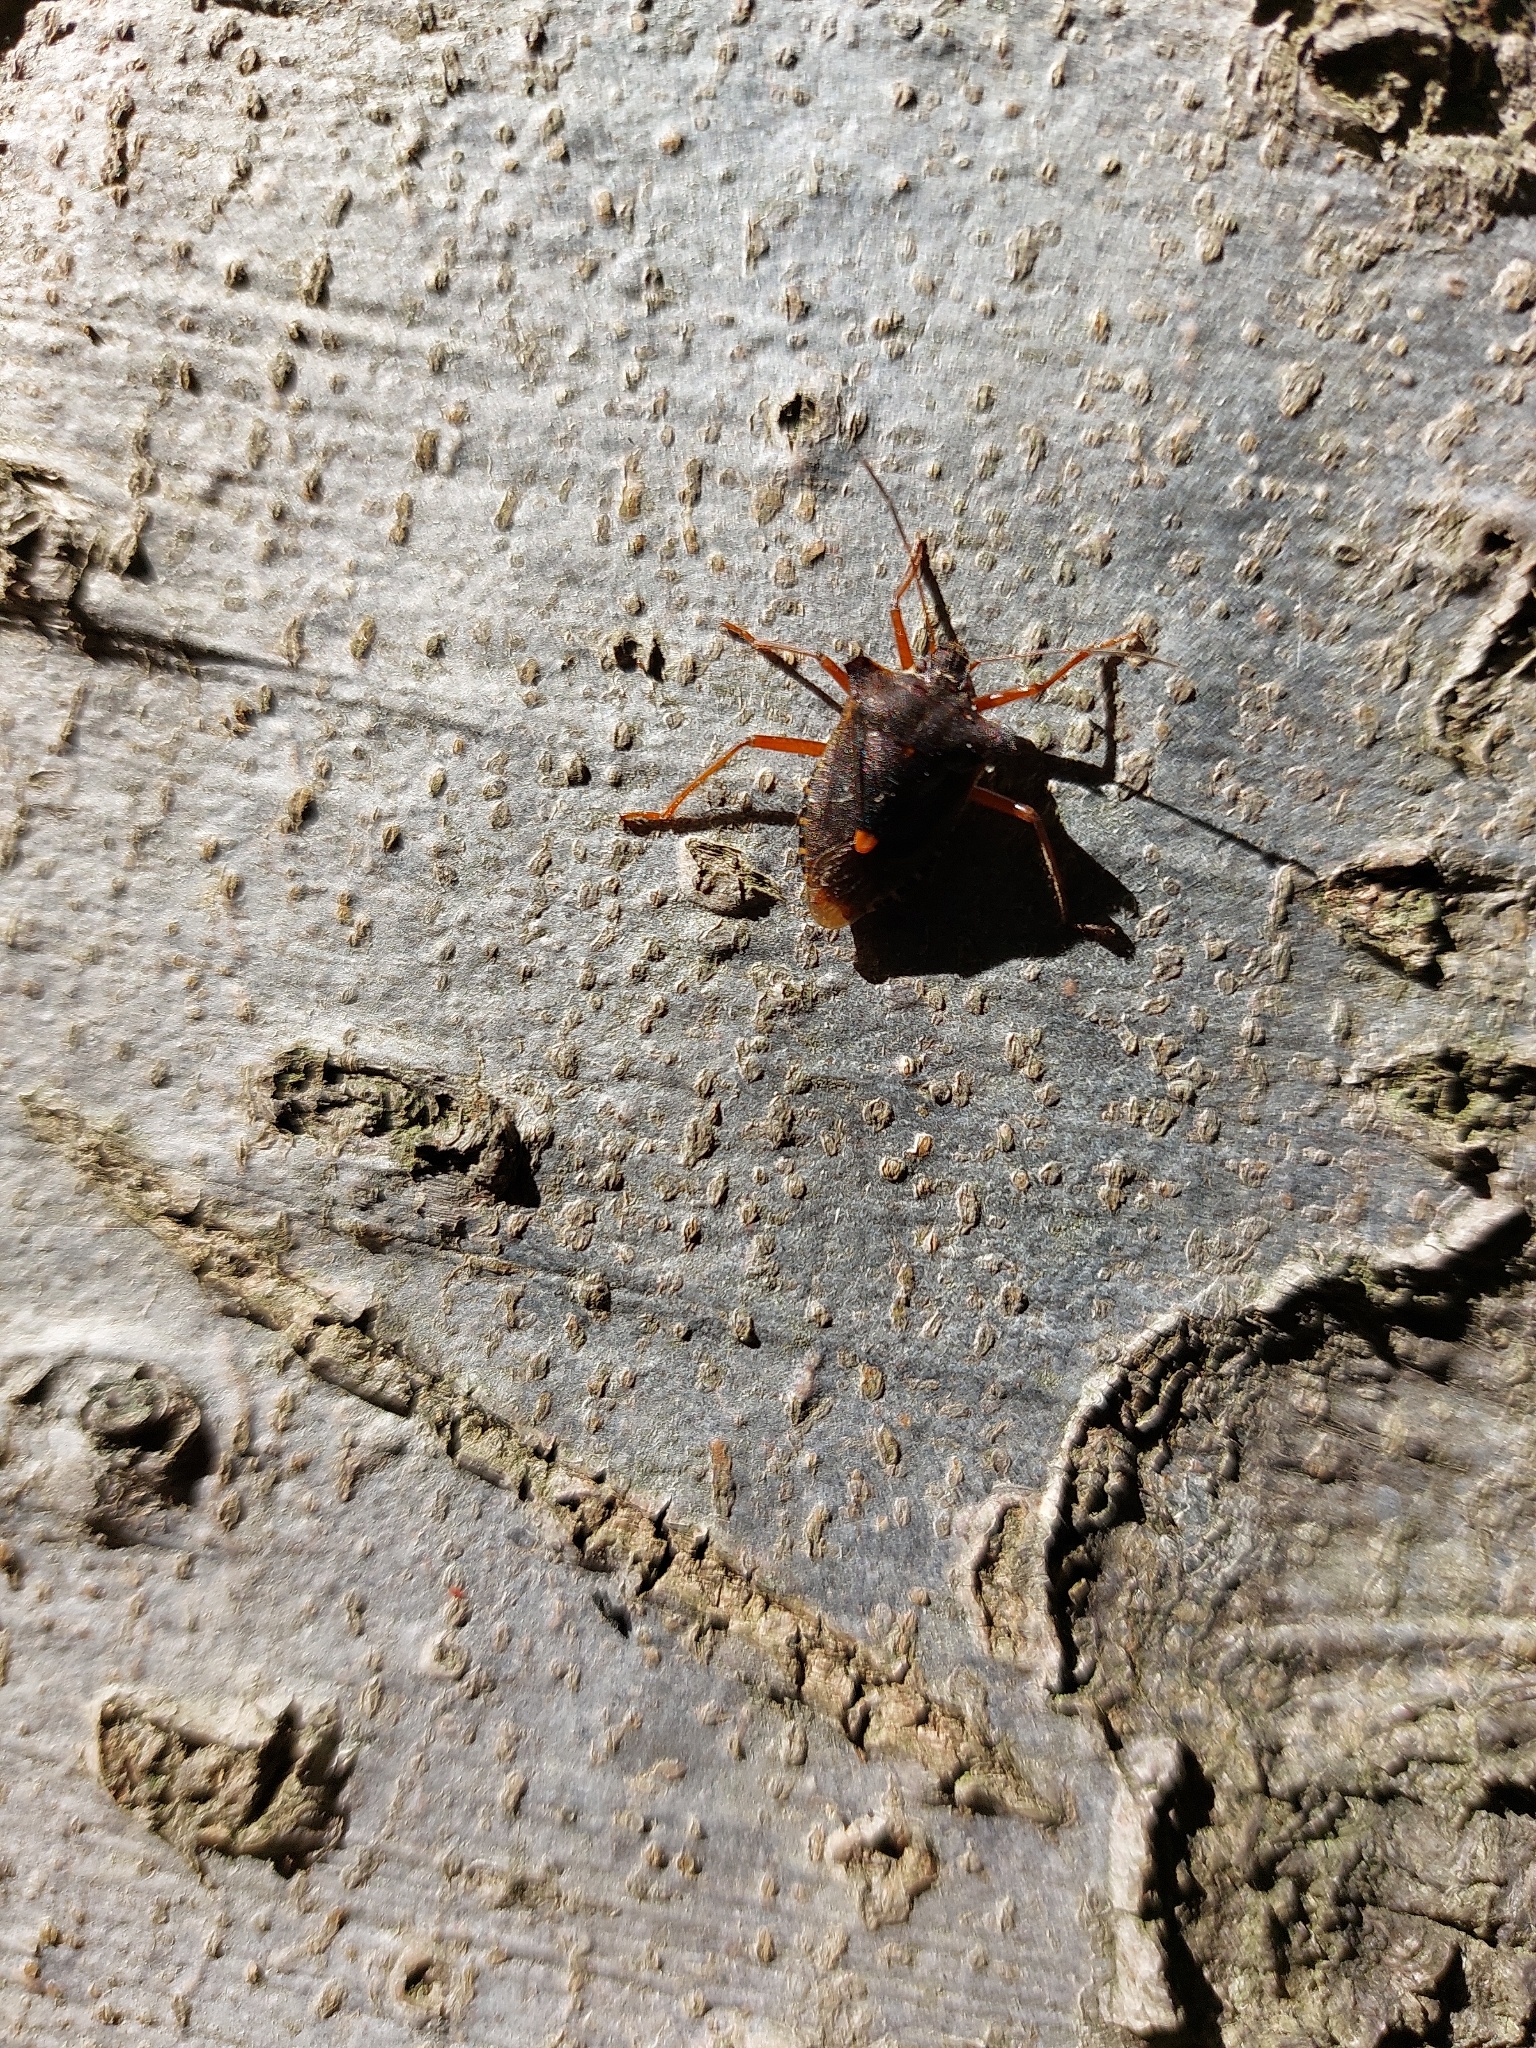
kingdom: Animalia
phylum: Arthropoda
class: Insecta
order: Hemiptera
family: Pentatomidae
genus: Pentatoma
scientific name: Pentatoma rufipes
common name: Forest bug
